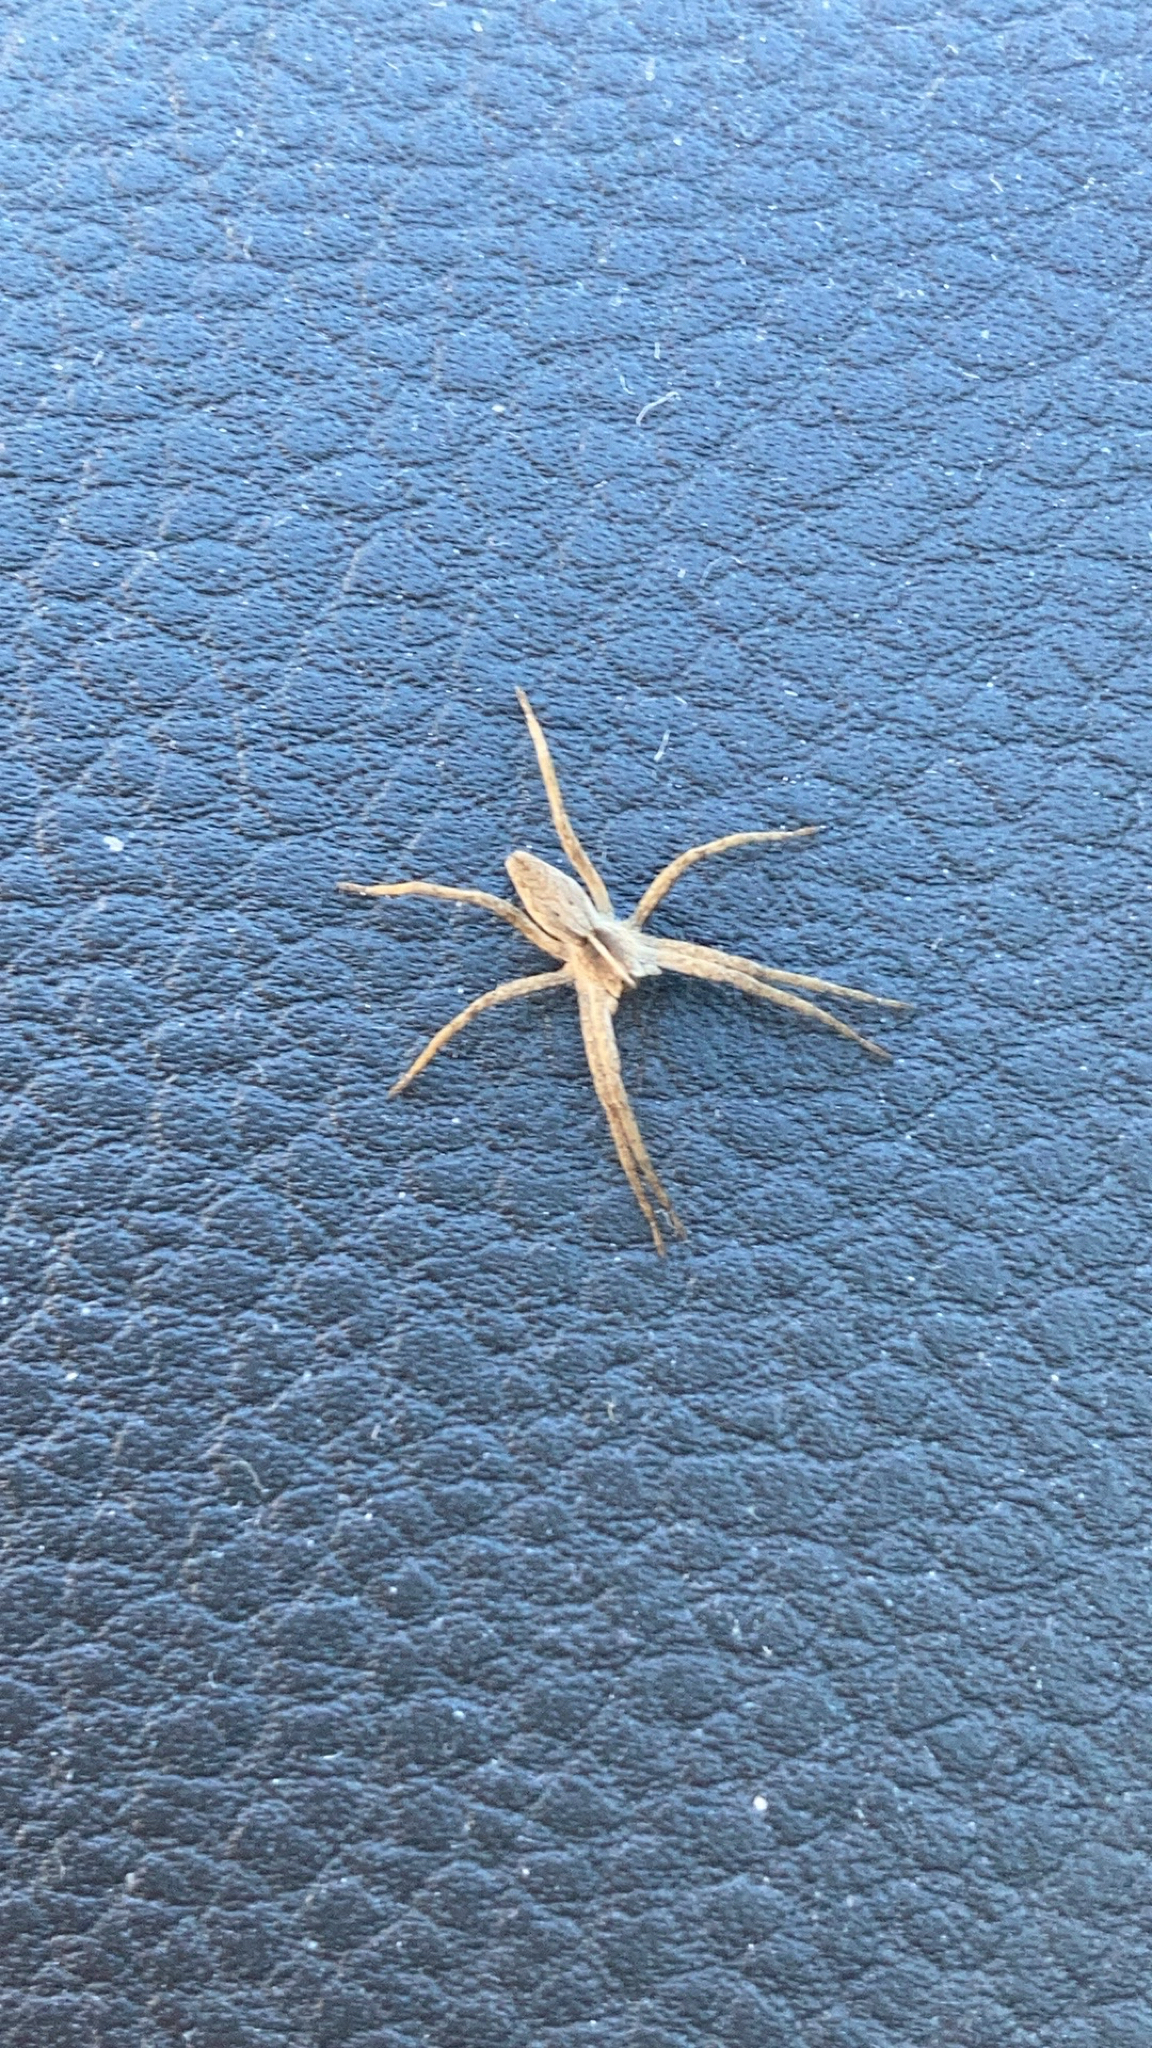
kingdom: Animalia
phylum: Arthropoda
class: Arachnida
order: Araneae
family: Pisauridae
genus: Pisaura
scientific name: Pisaura mirabilis
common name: Tent spider
